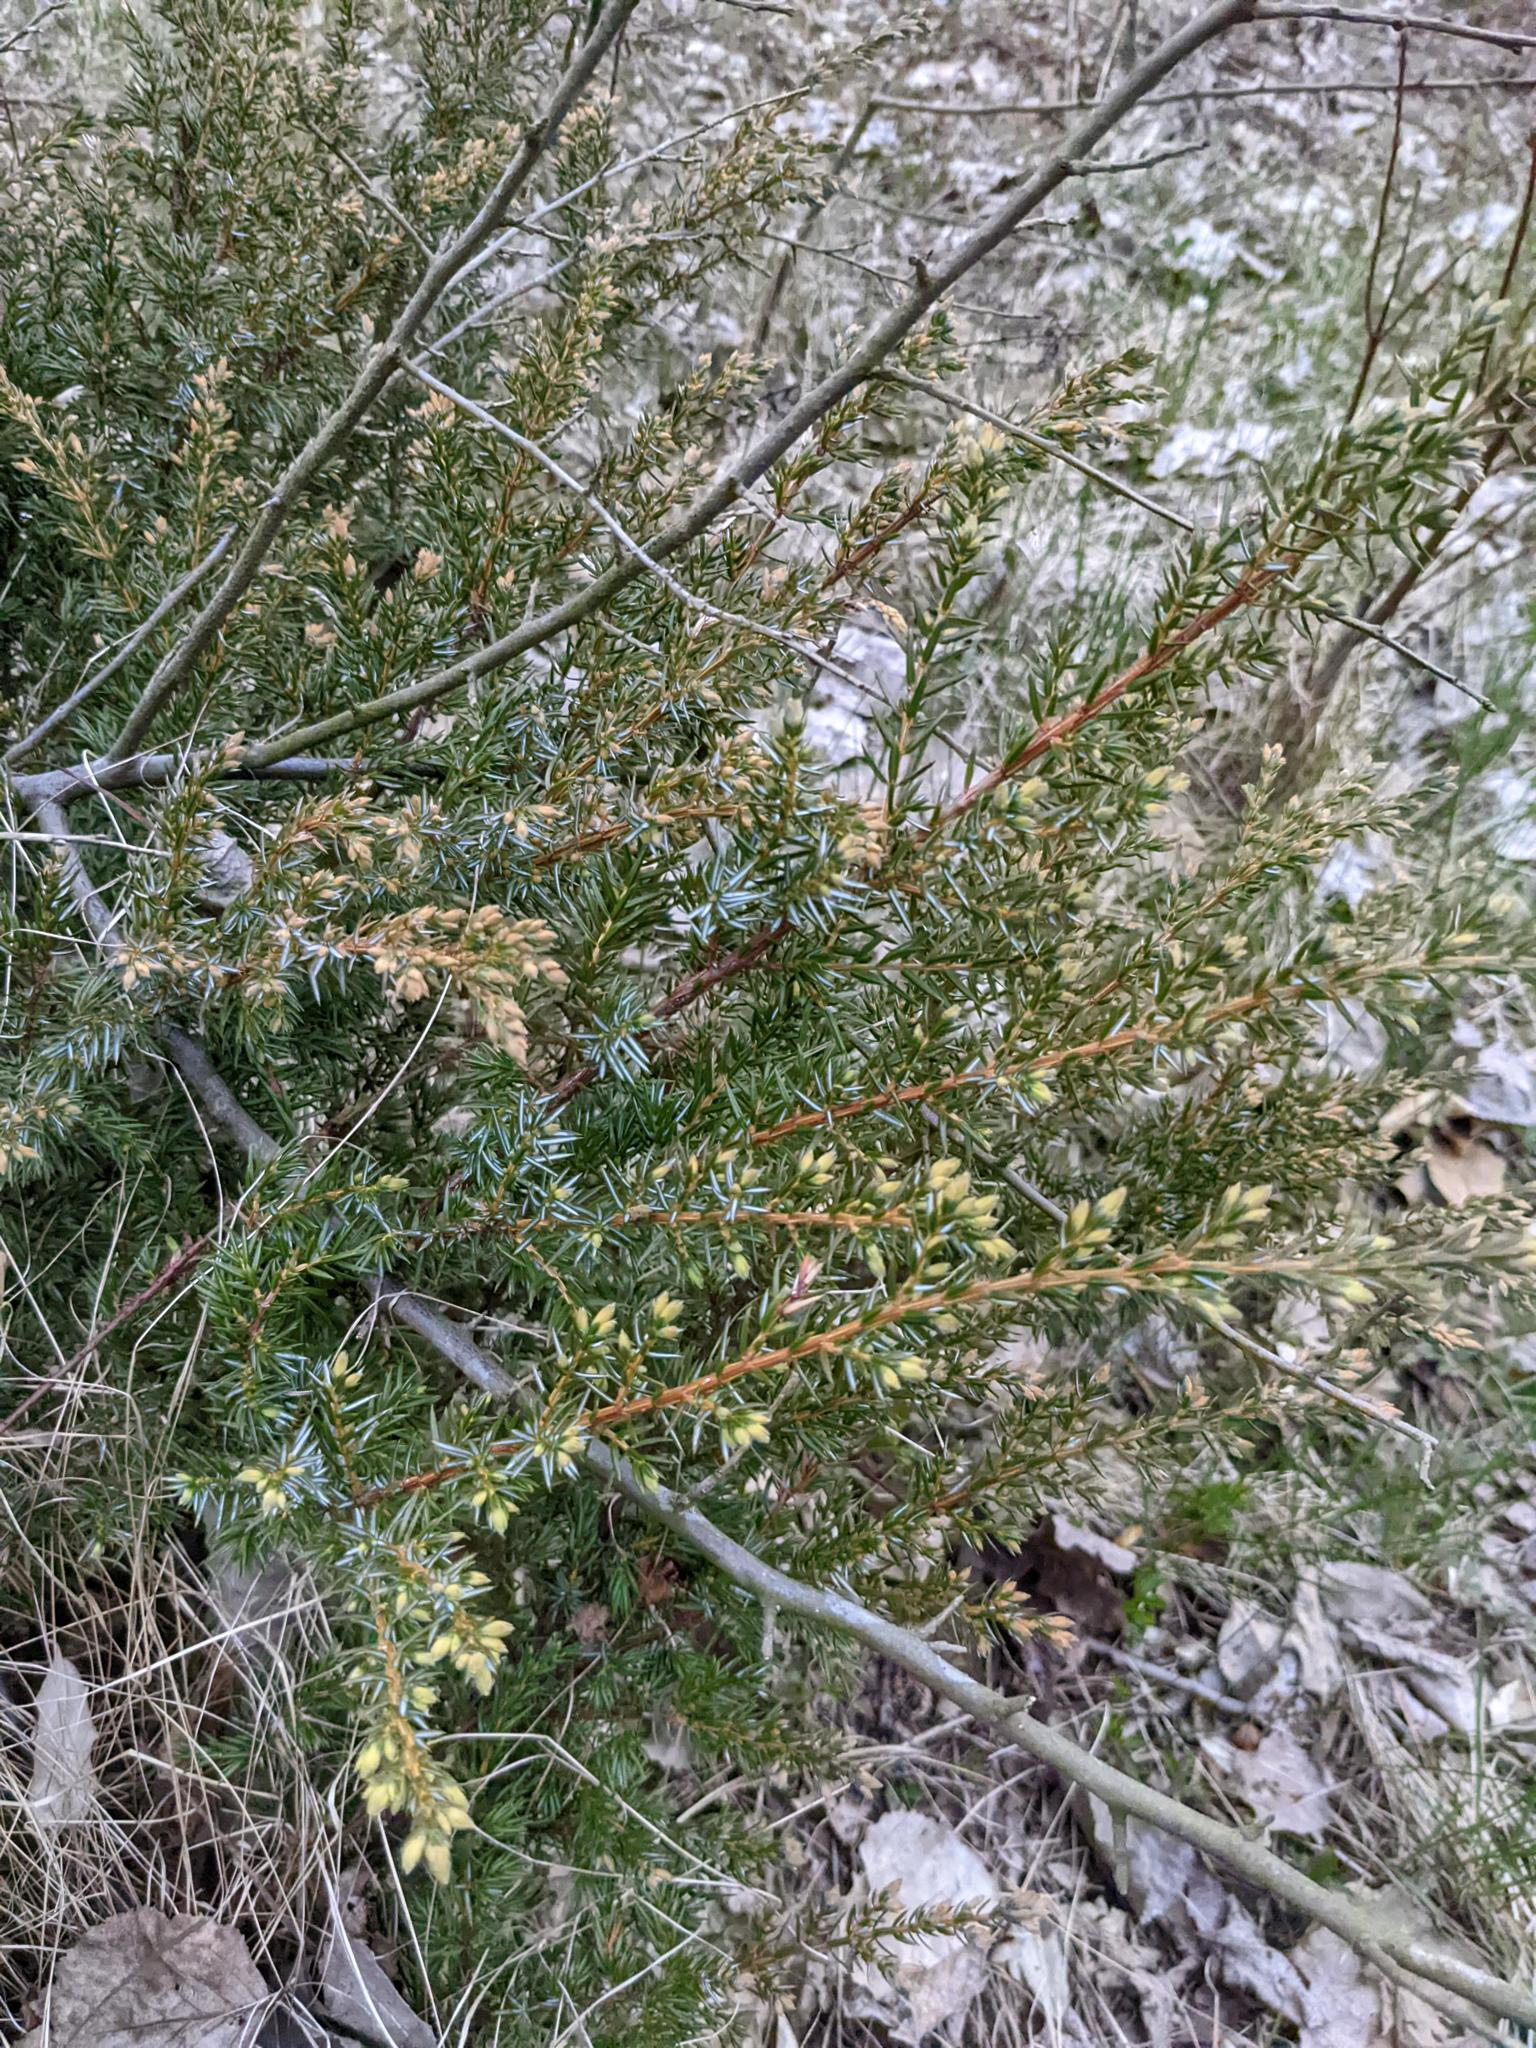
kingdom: Plantae
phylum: Tracheophyta
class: Pinopsida
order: Pinales
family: Cupressaceae
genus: Juniperus
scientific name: Juniperus communis
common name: Common juniper
